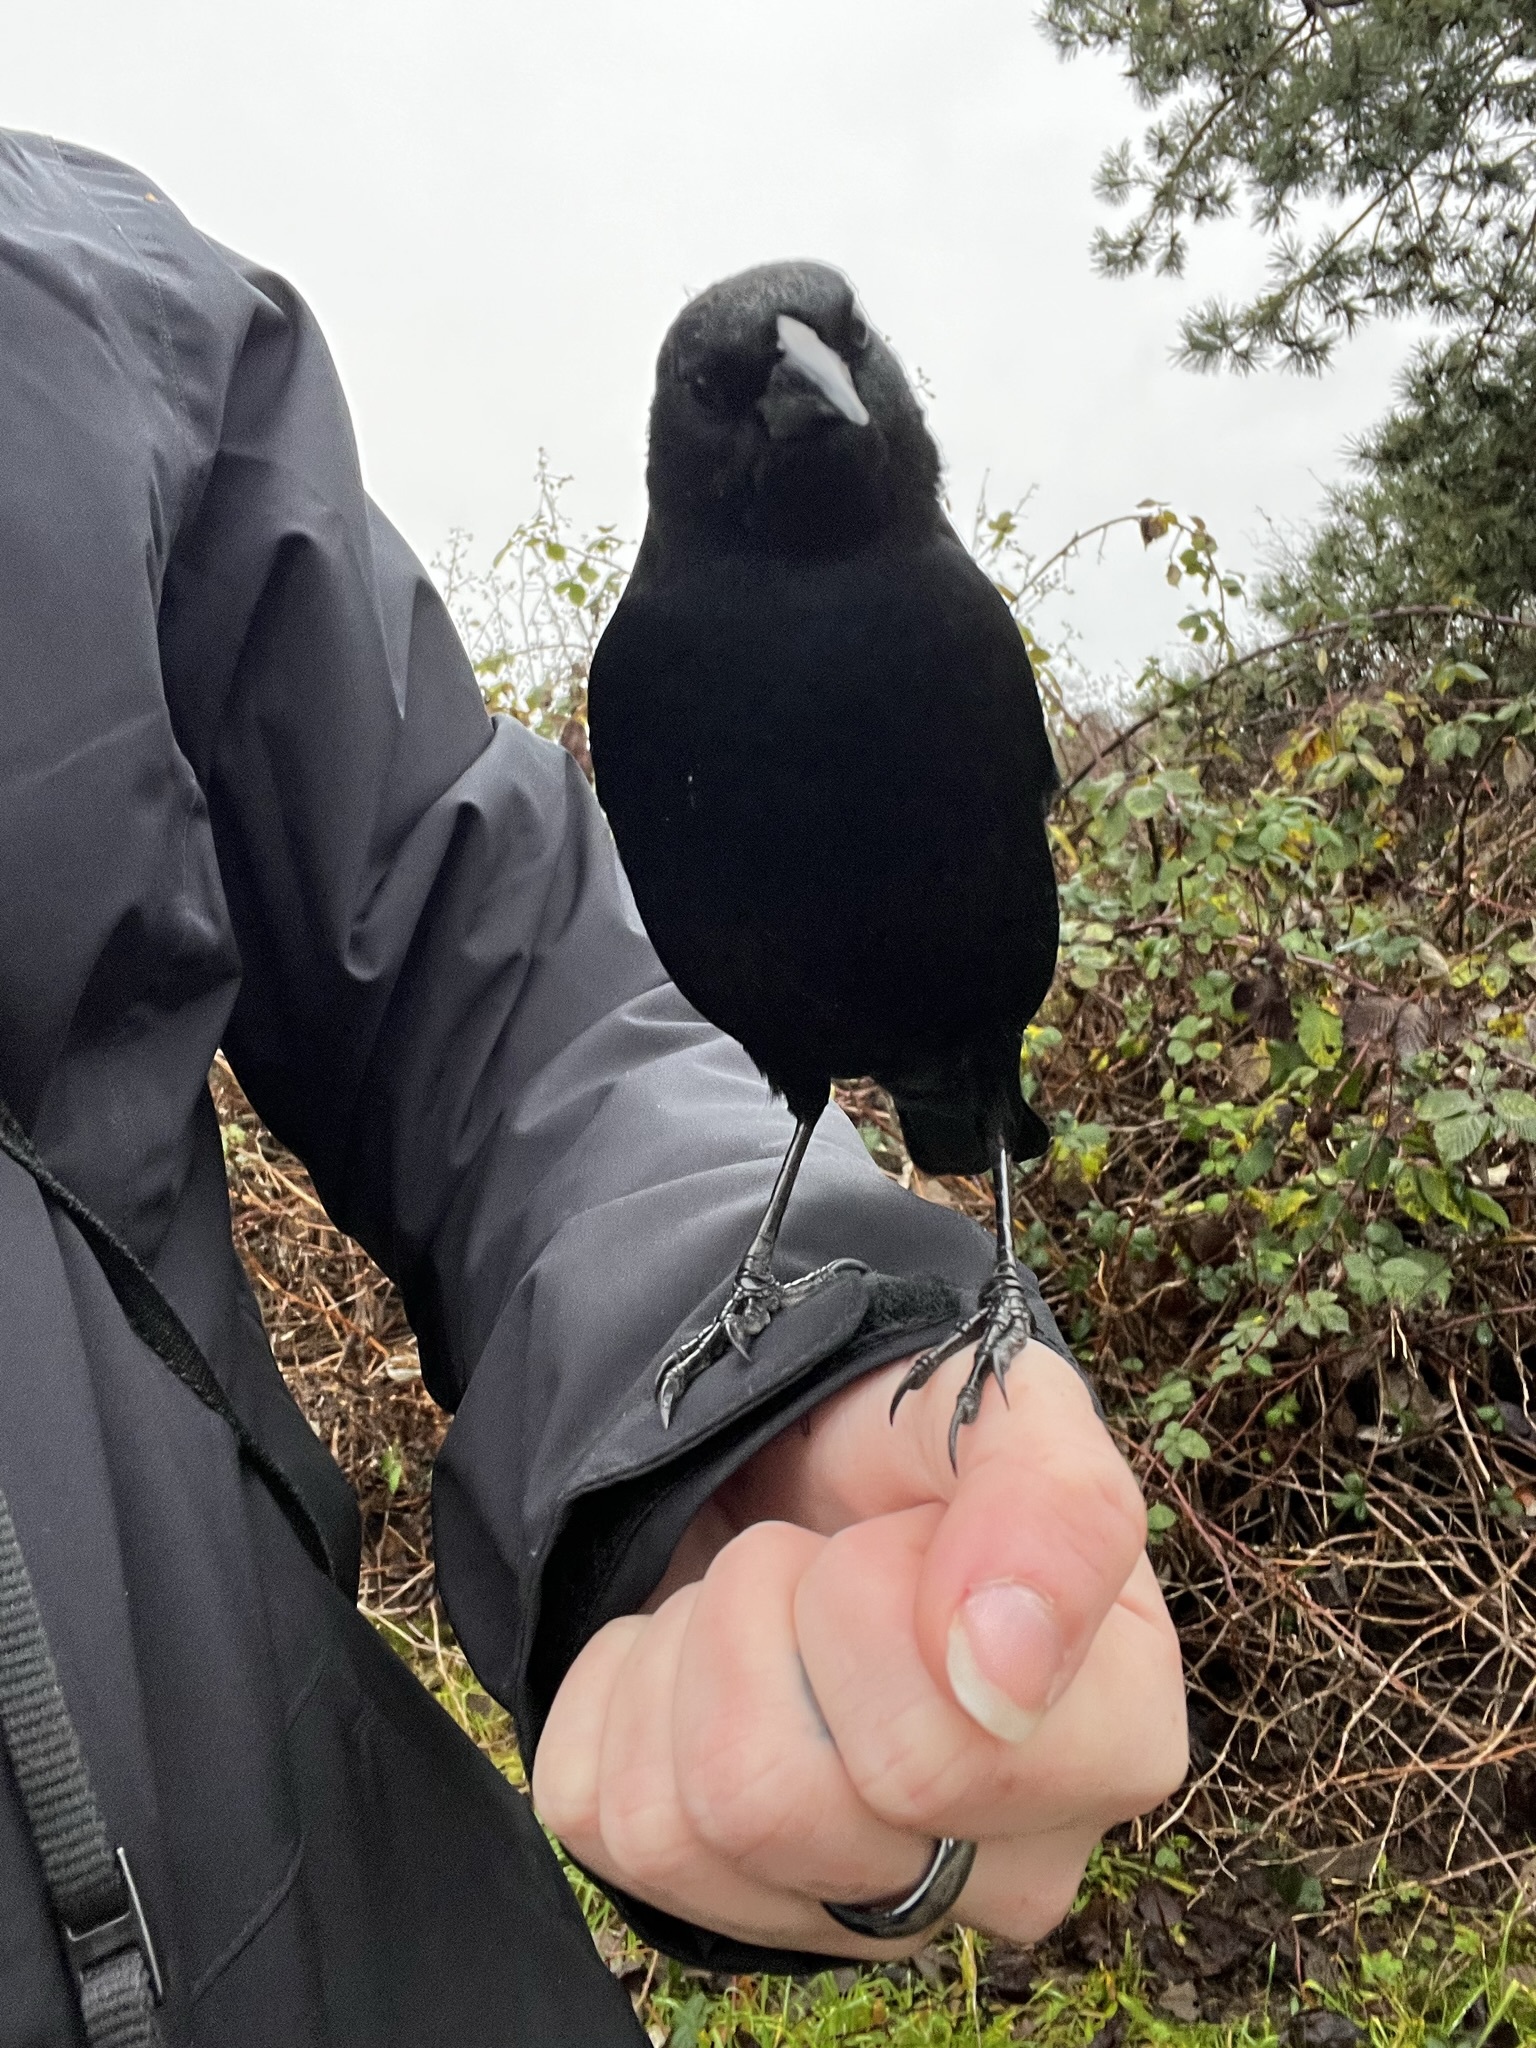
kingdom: Animalia
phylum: Chordata
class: Aves
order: Passeriformes
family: Icteridae
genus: Agelaius
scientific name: Agelaius phoeniceus
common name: Red-winged blackbird
